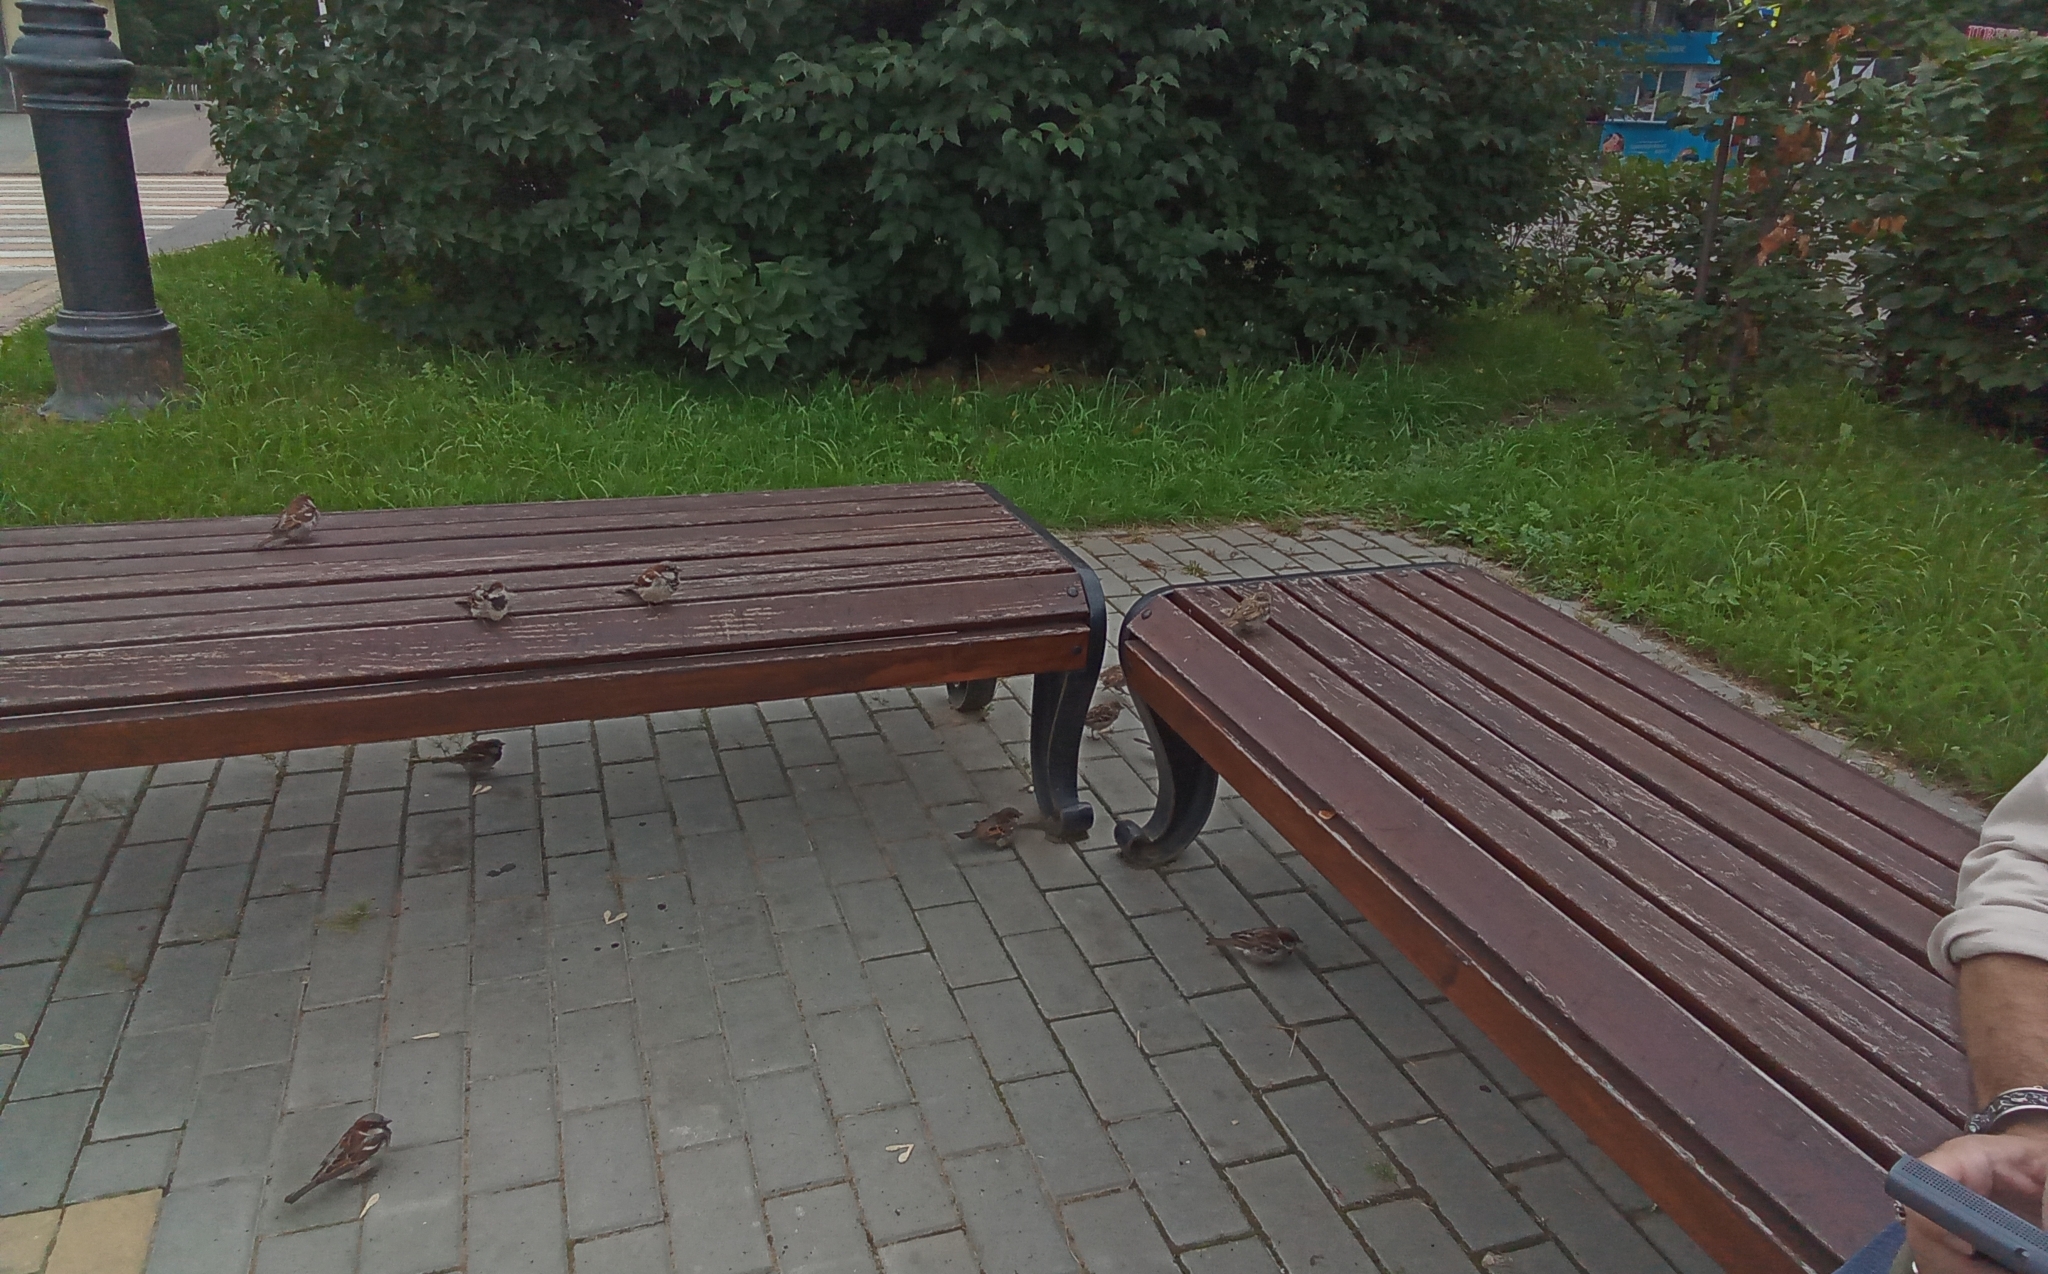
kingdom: Animalia
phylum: Chordata
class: Aves
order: Passeriformes
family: Passeridae
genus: Passer
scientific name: Passer domesticus
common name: House sparrow
